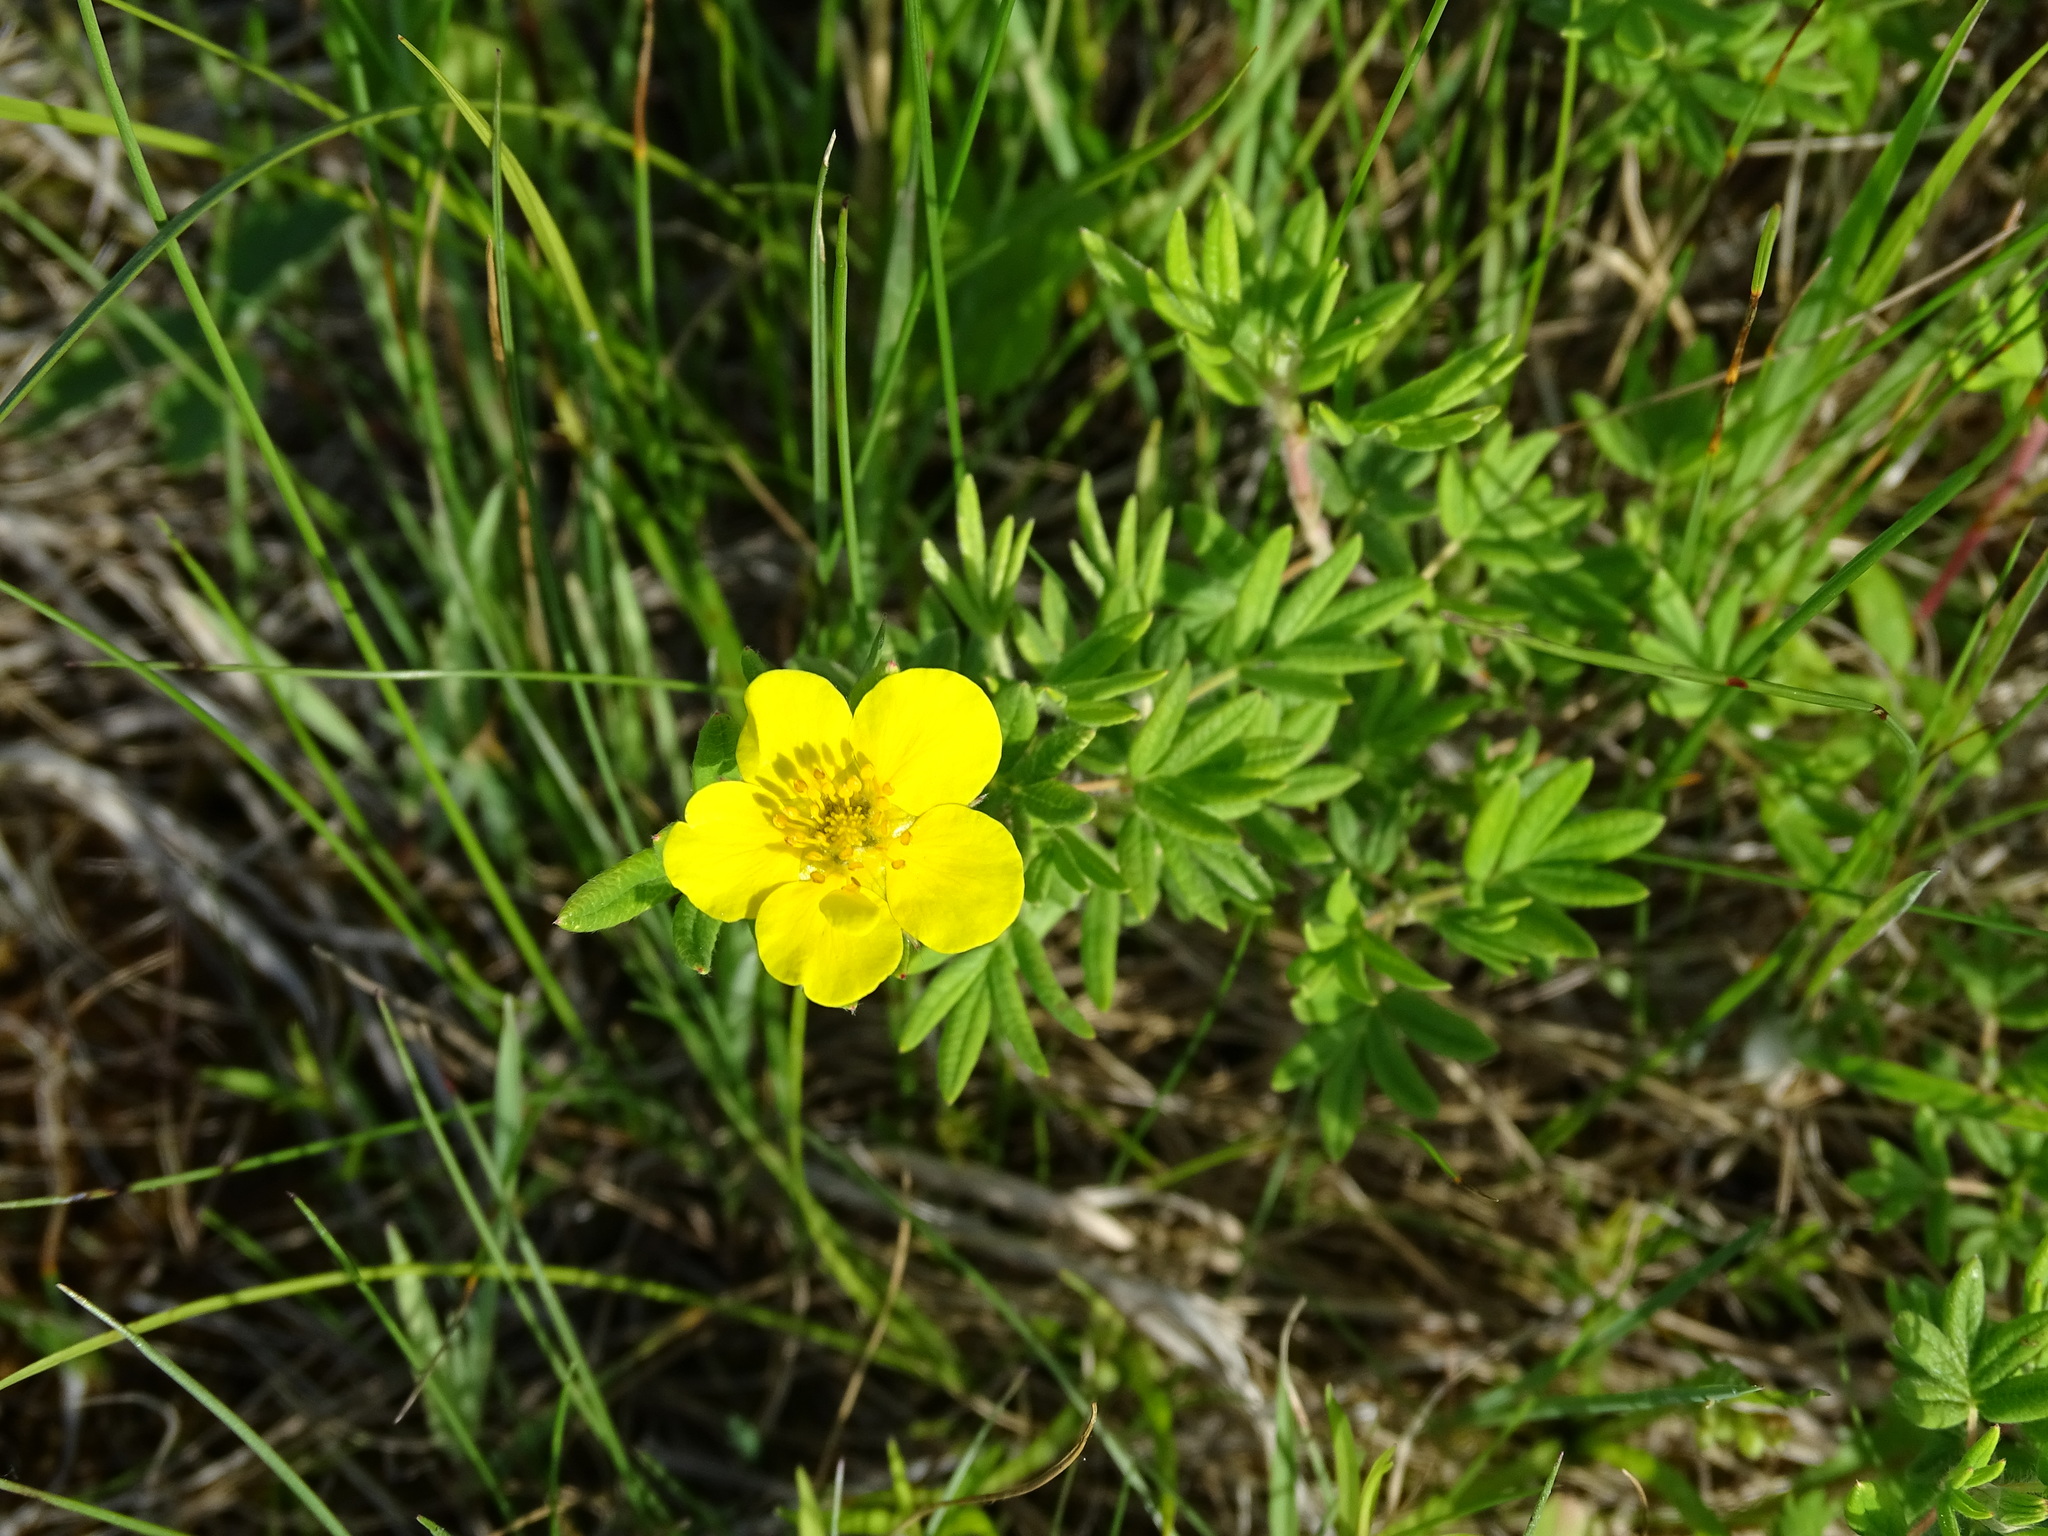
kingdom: Plantae
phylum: Tracheophyta
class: Magnoliopsida
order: Rosales
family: Rosaceae
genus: Dasiphora
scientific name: Dasiphora fruticosa
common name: Shrubby cinquefoil
